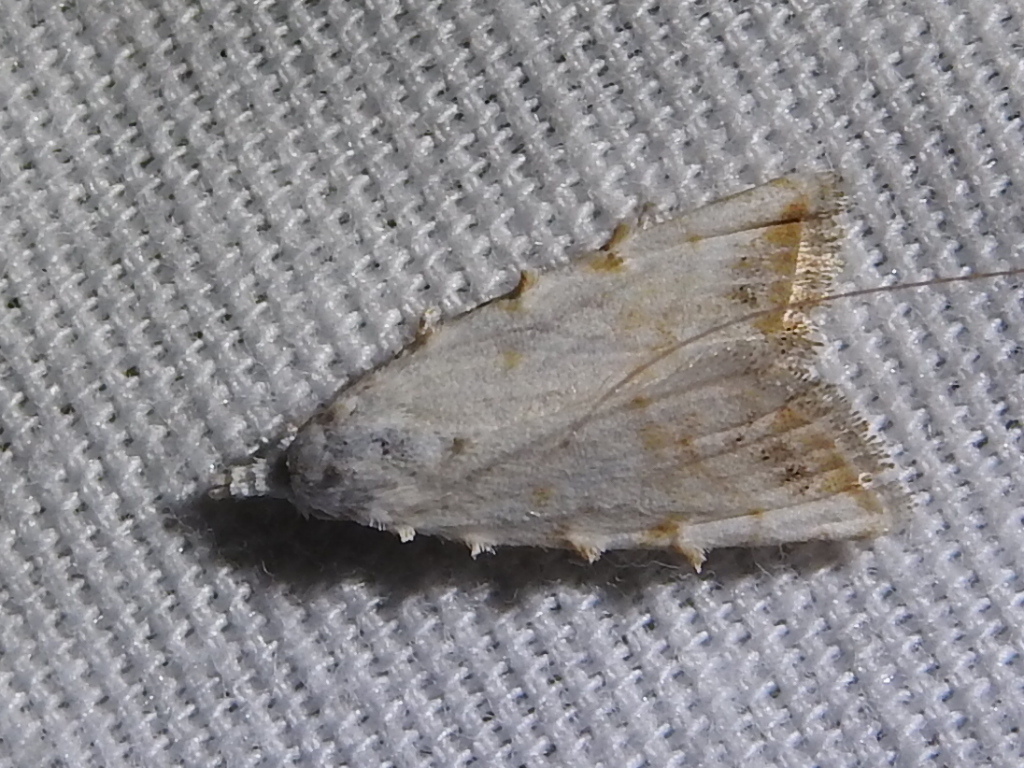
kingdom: Animalia
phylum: Arthropoda
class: Insecta
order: Lepidoptera
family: Nolidae
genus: Nola
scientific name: Nola cereella
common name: Sorghum webworm moth
